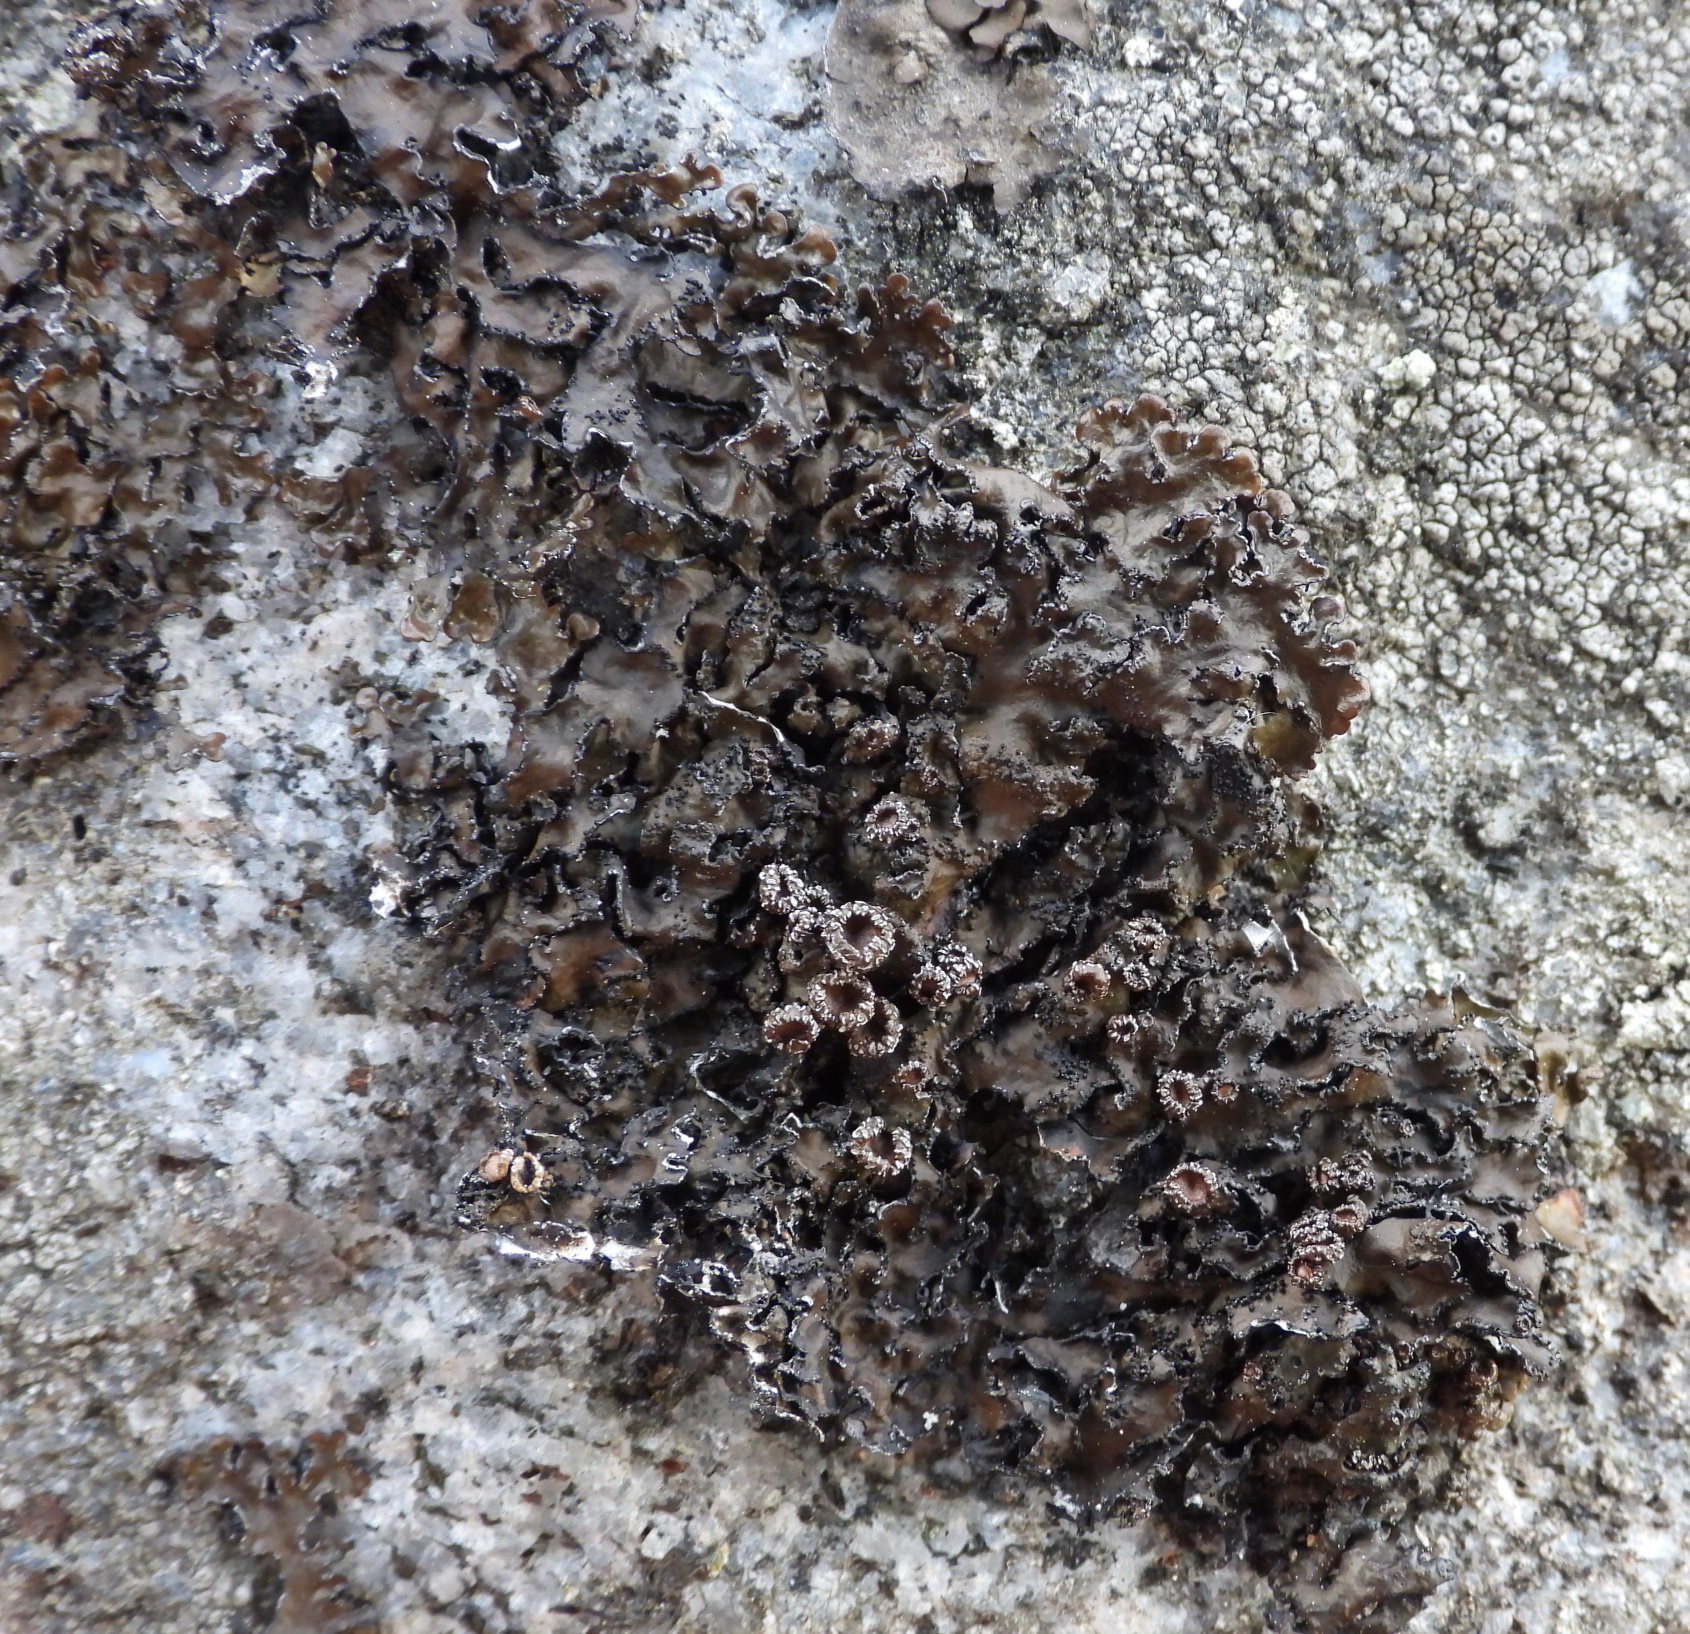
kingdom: Fungi
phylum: Ascomycota
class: Lecanoromycetes
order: Lecanorales
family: Parmeliaceae
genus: Melanelia
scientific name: Melanelia hepatizon
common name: Rimmed camouflage lichen
